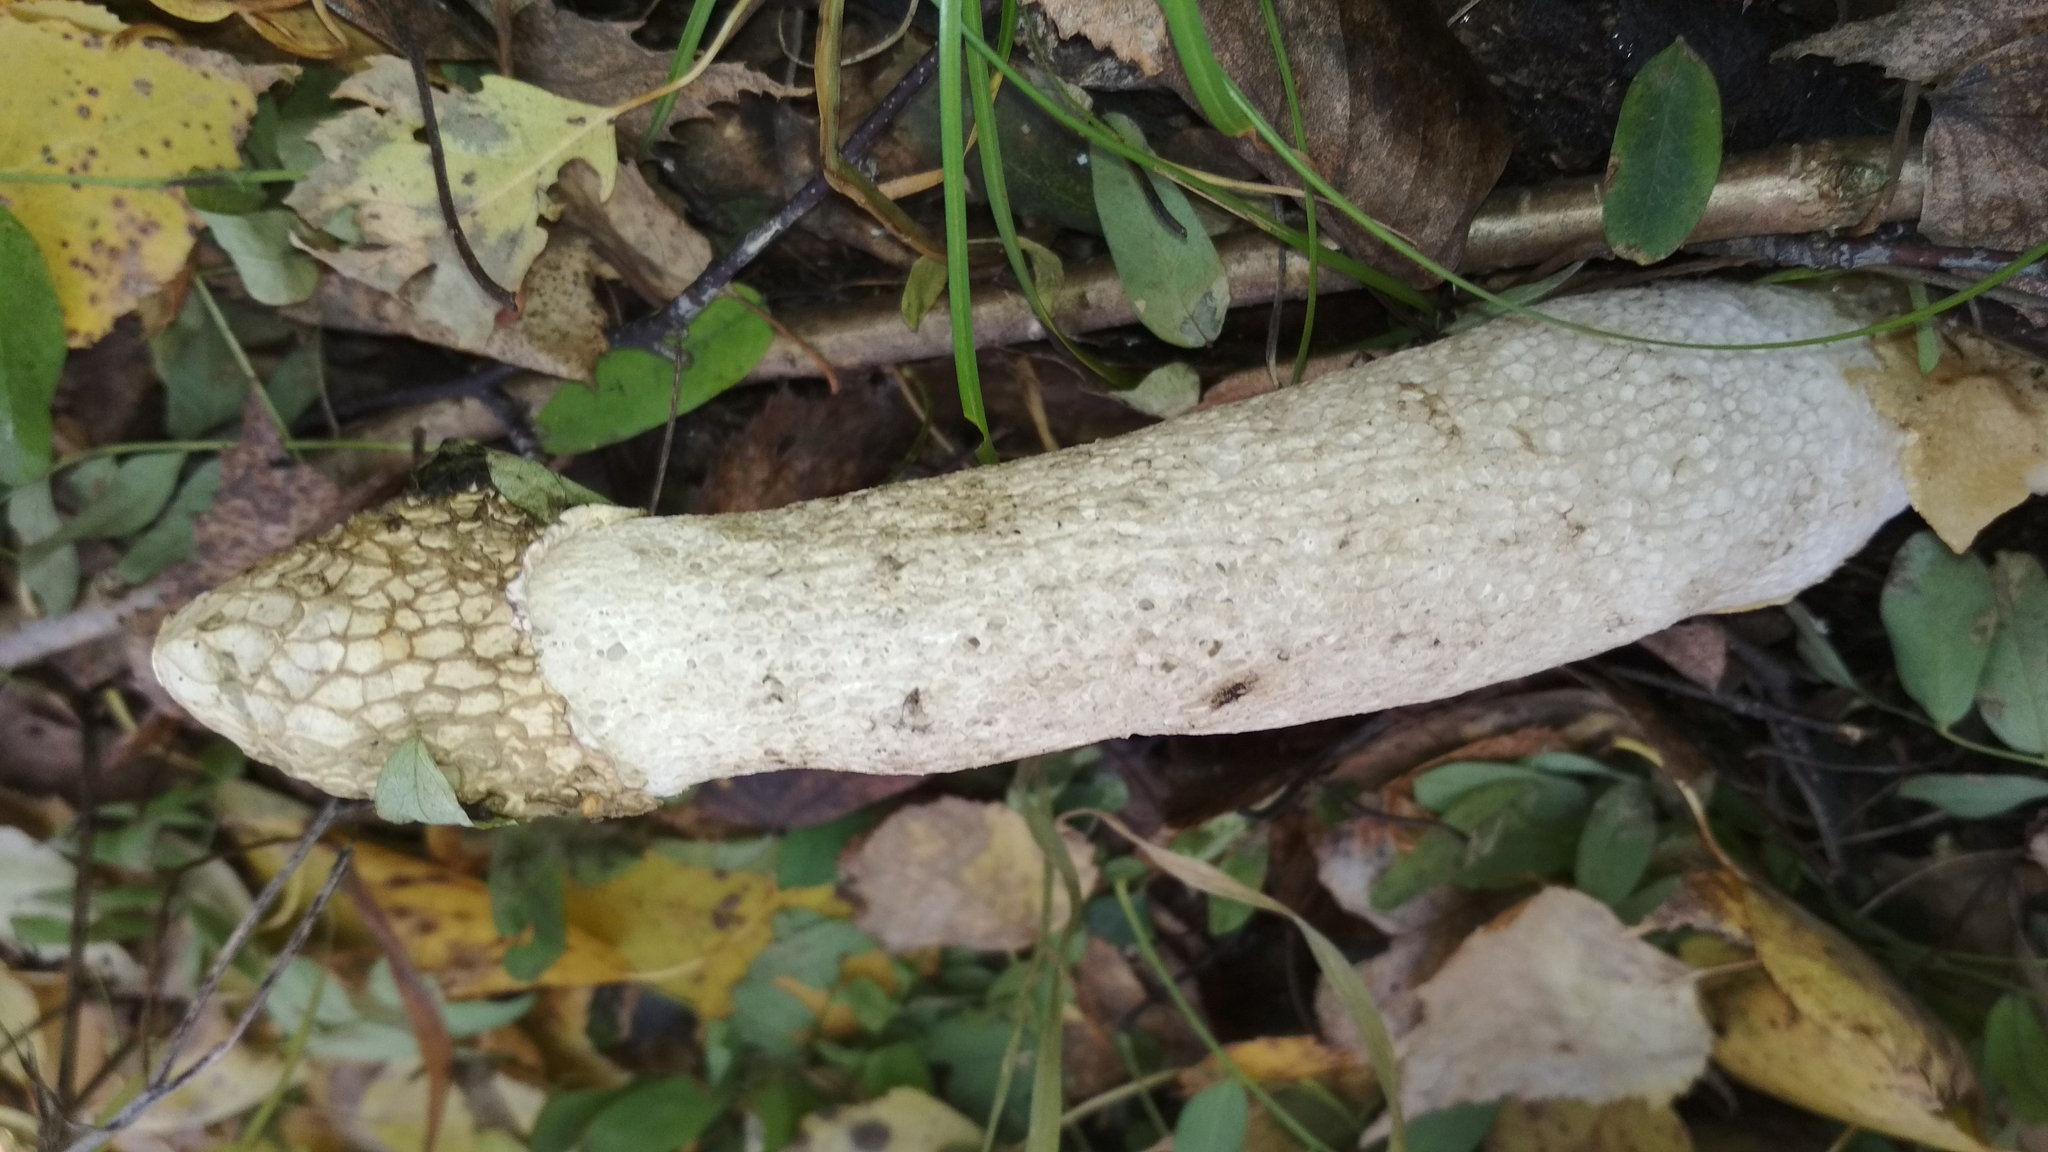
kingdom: Fungi
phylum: Basidiomycota
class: Agaricomycetes
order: Phallales
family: Phallaceae
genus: Phallus
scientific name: Phallus impudicus
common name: Common stinkhorn
